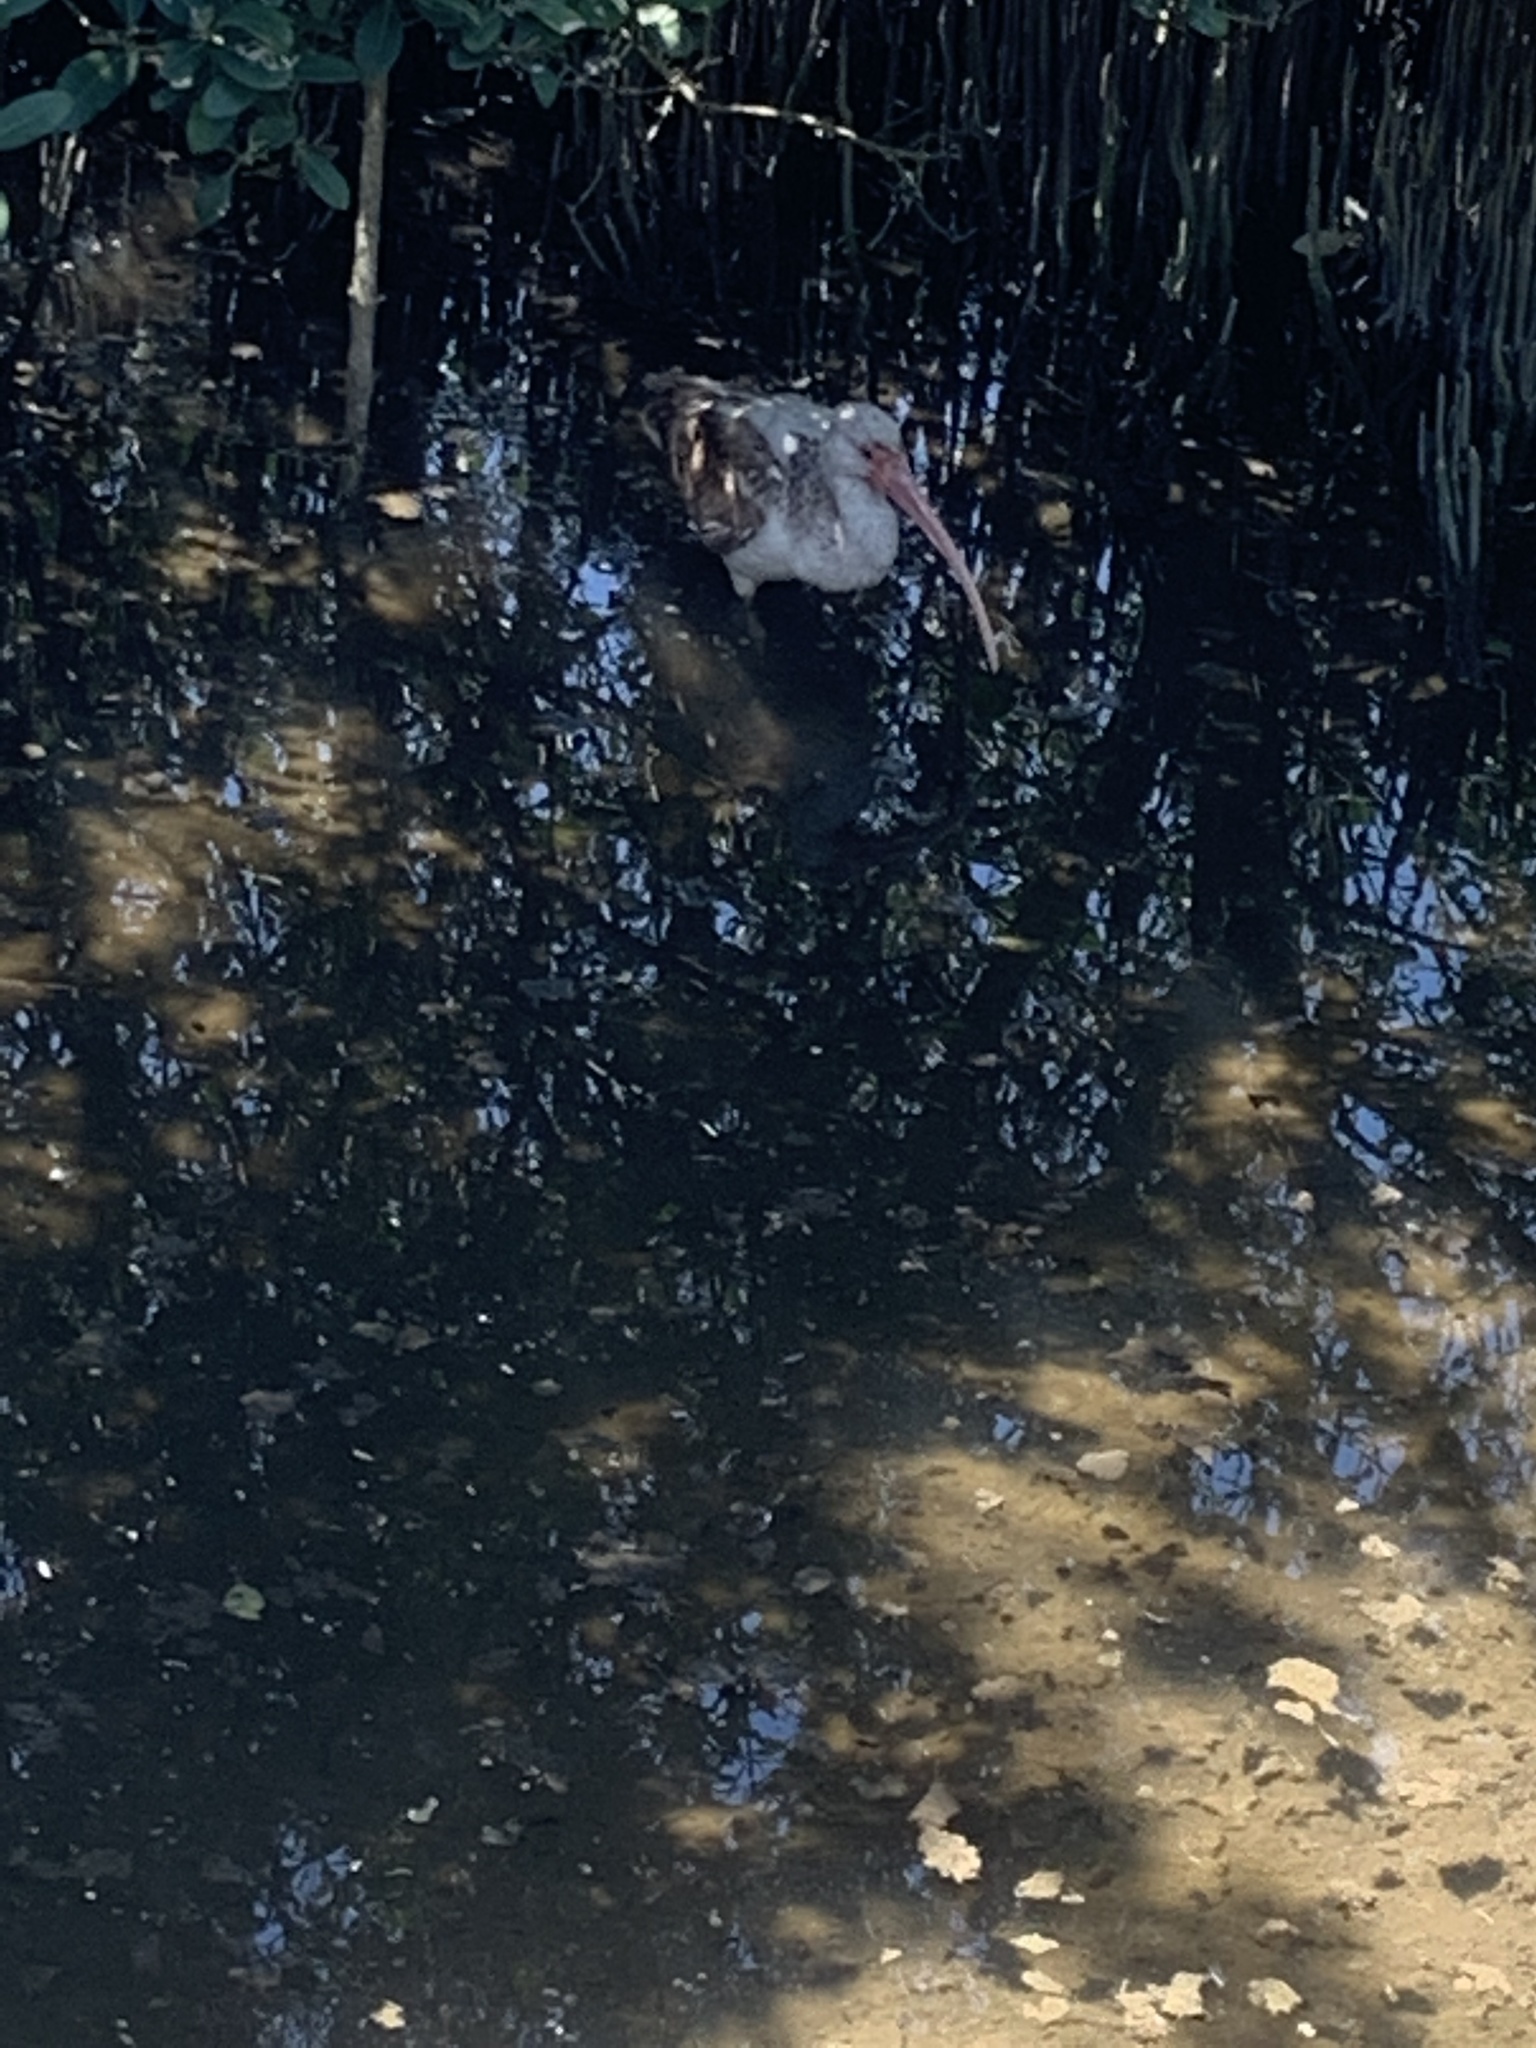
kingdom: Animalia
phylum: Chordata
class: Aves
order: Pelecaniformes
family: Threskiornithidae
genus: Eudocimus
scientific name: Eudocimus albus
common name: White ibis
